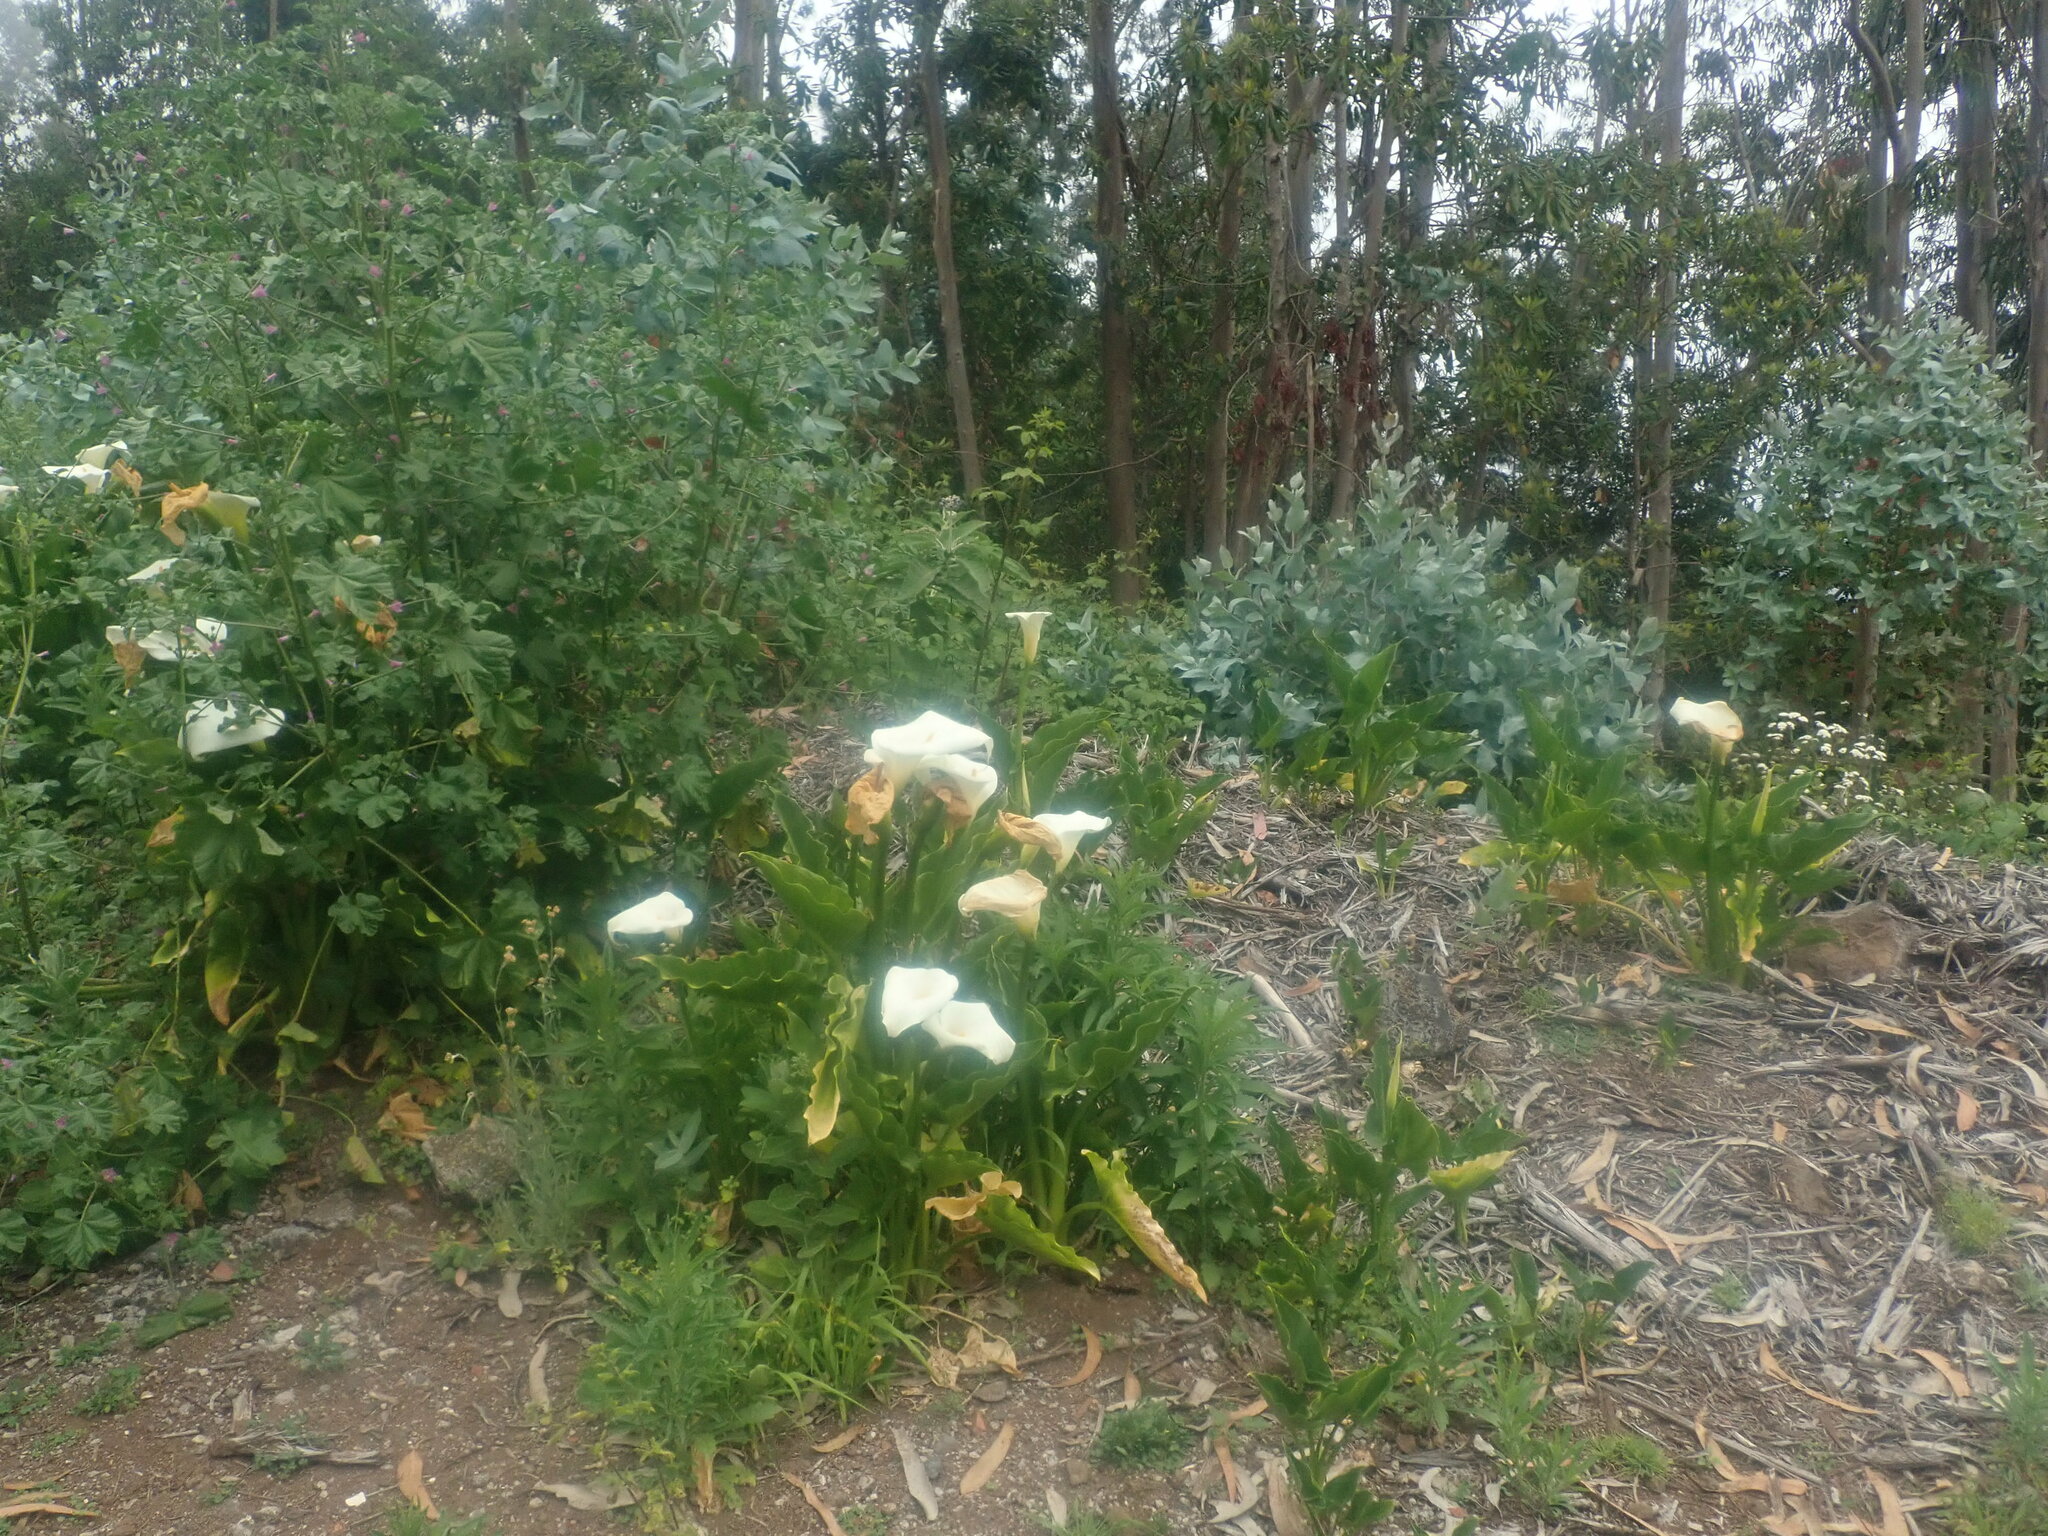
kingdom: Plantae
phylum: Tracheophyta
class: Liliopsida
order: Alismatales
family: Araceae
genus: Zantedeschia
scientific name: Zantedeschia aethiopica
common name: Altar-lily
